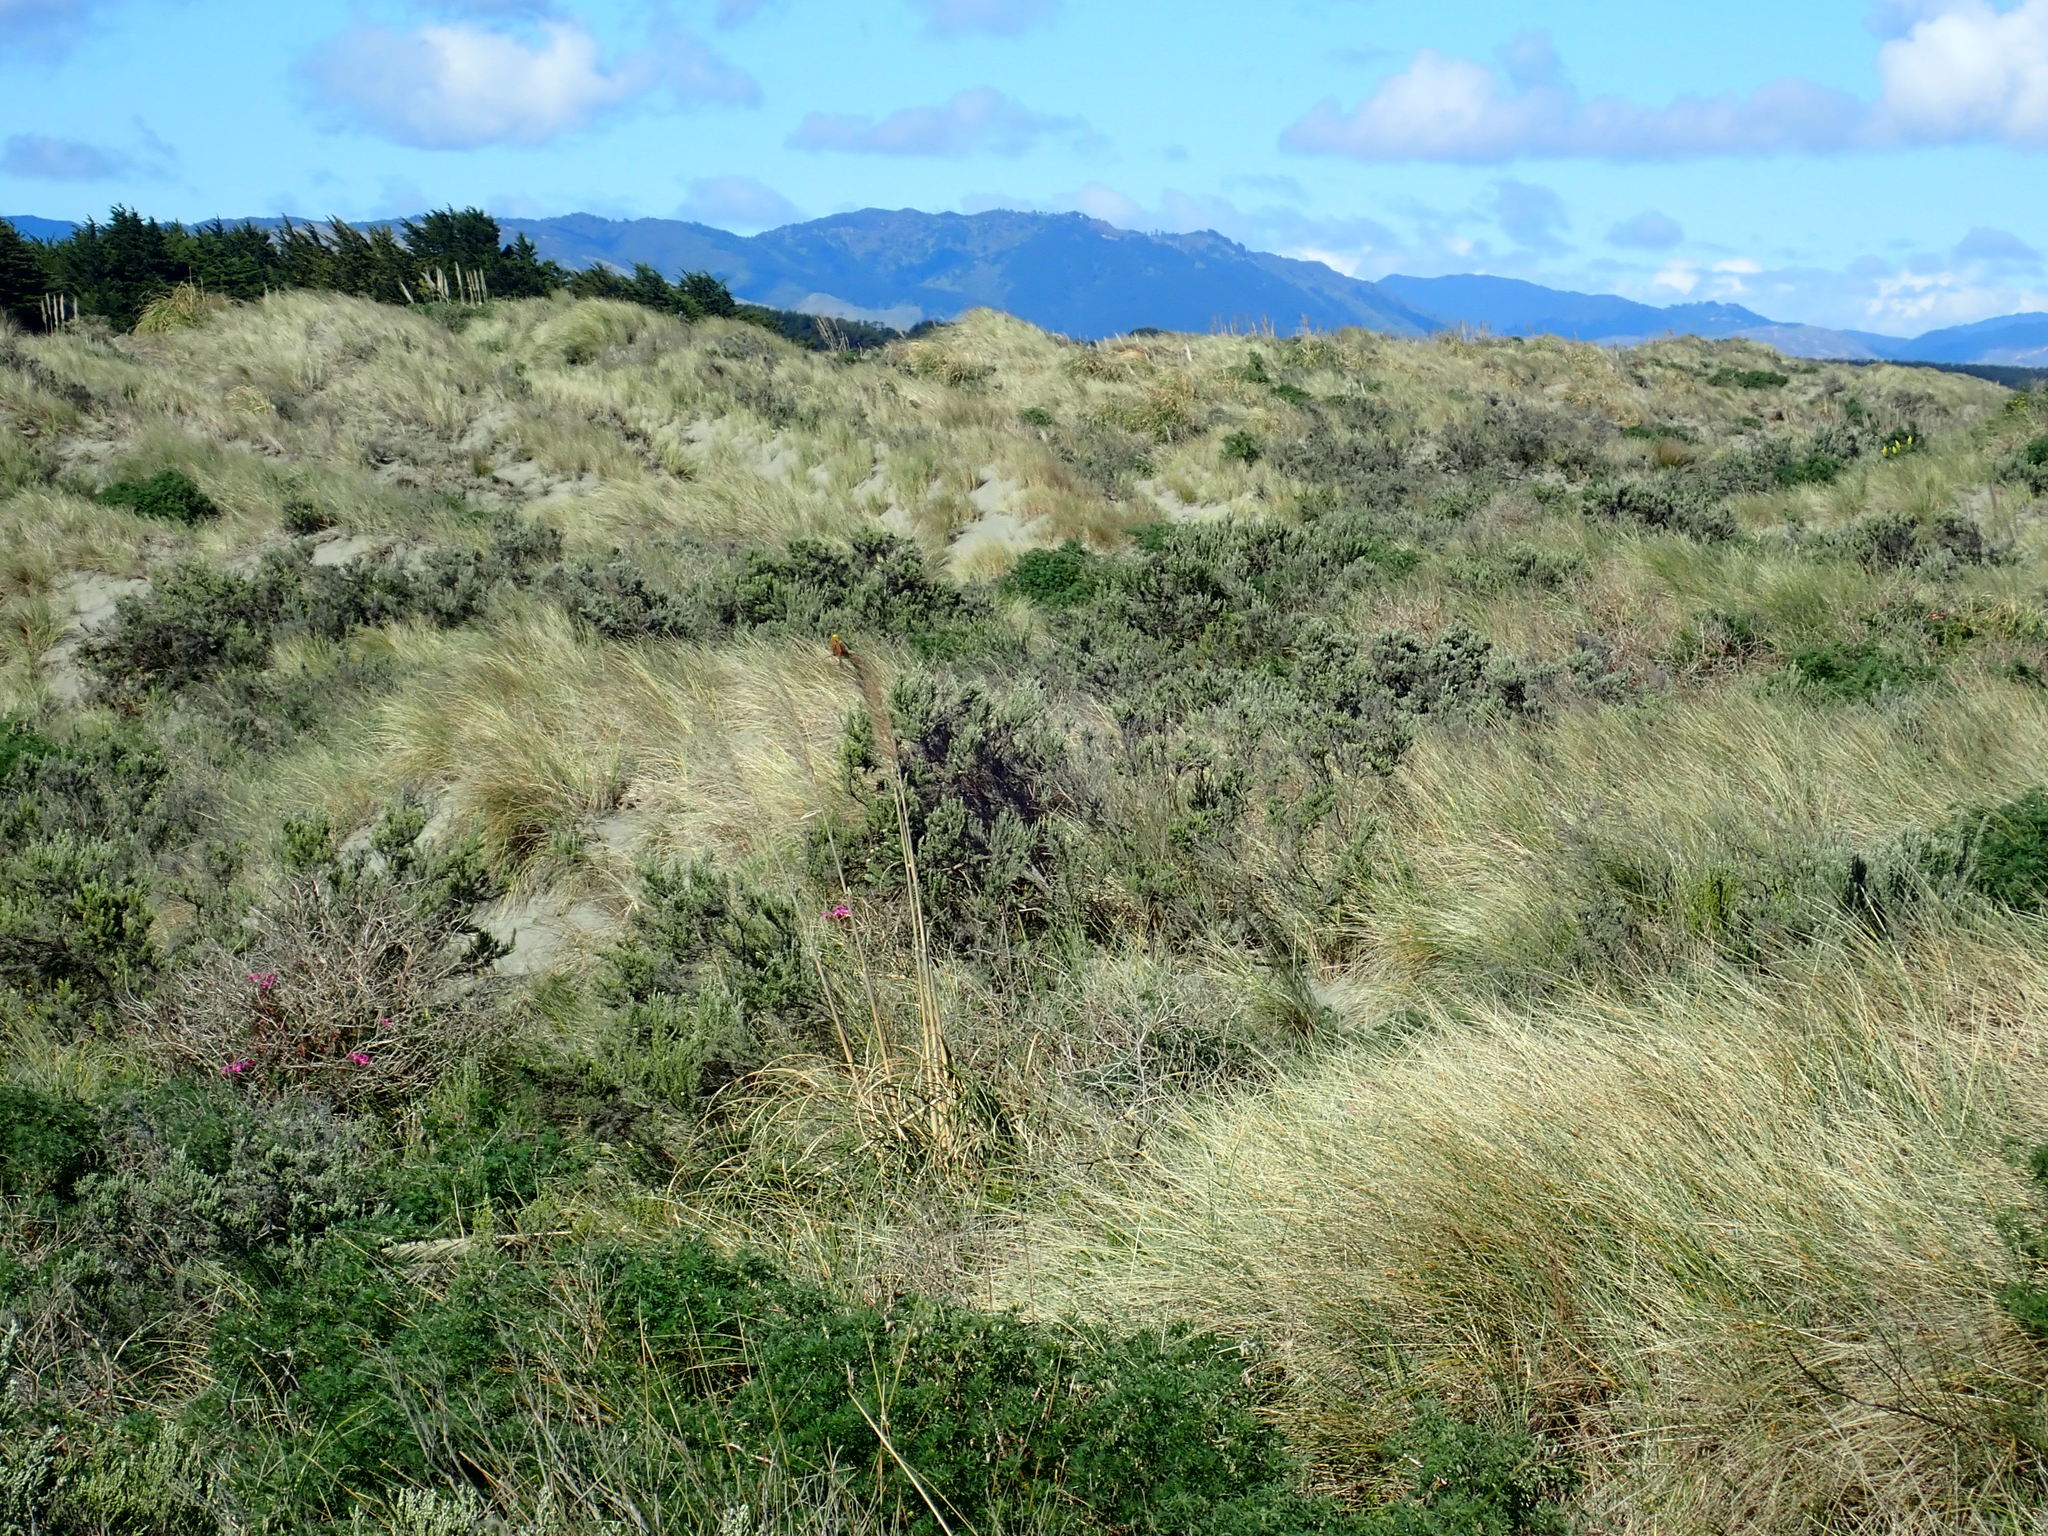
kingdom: Animalia
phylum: Chordata
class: Aves
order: Passeriformes
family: Emberizidae
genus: Emberiza
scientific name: Emberiza citrinella
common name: Yellowhammer
